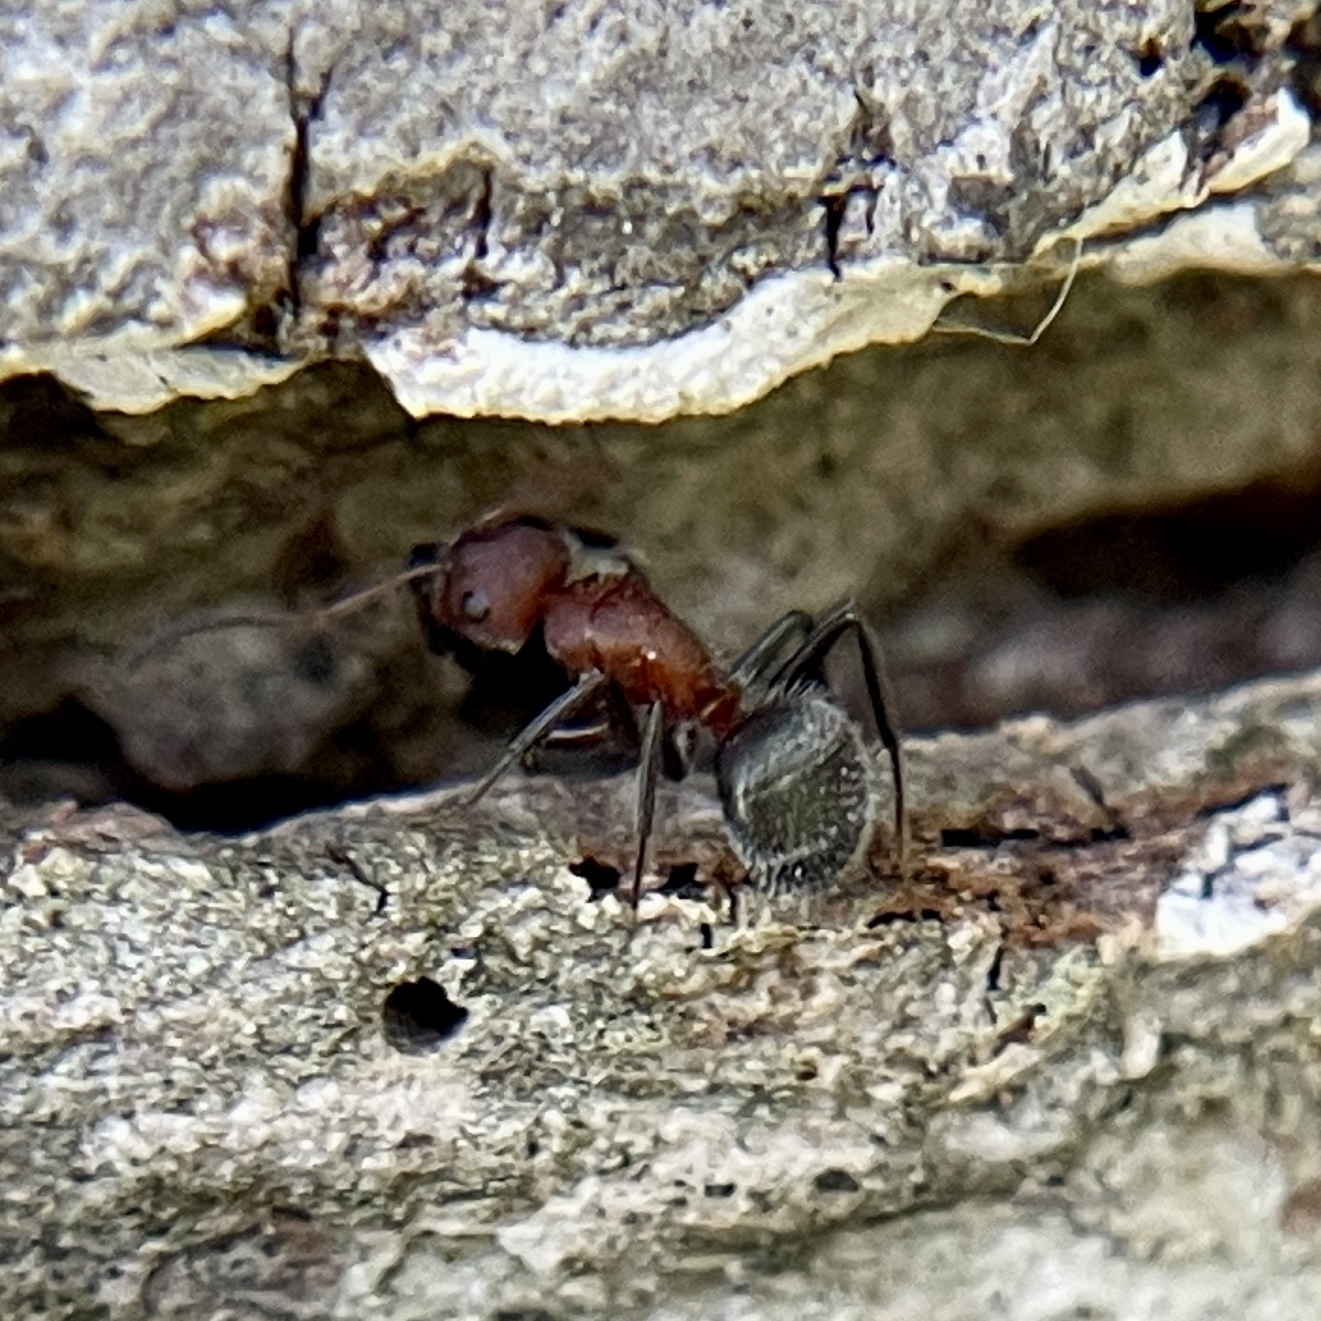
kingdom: Animalia
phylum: Arthropoda
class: Insecta
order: Hymenoptera
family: Formicidae
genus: Camponotus
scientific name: Camponotus planatus
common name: Compact carpenter ant
